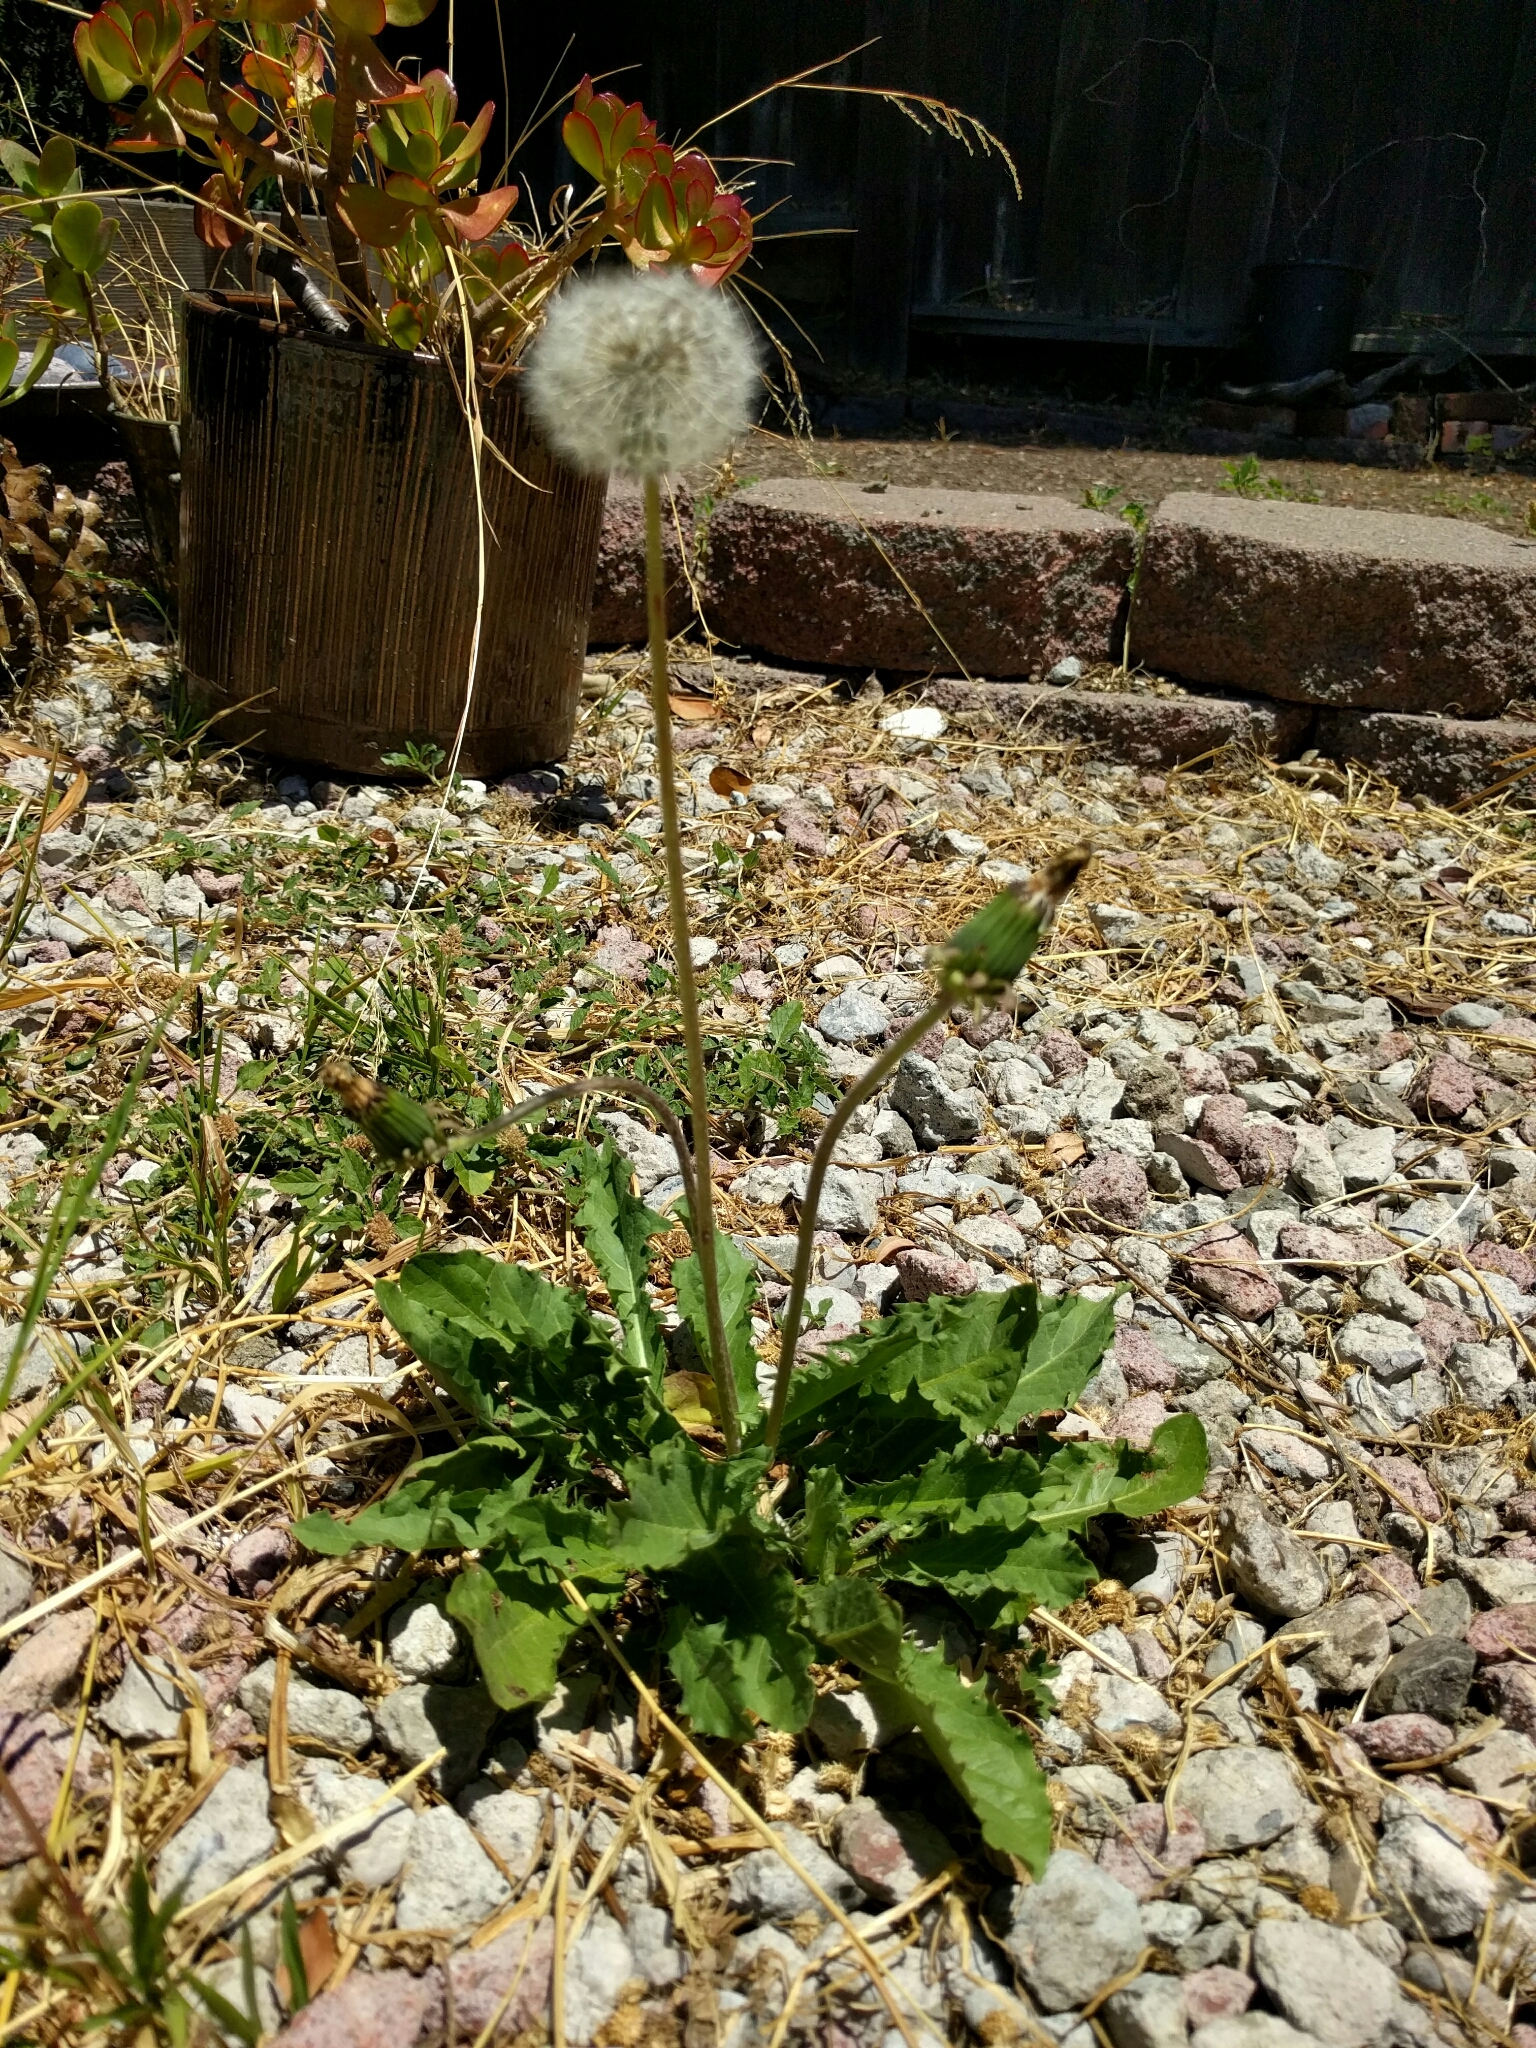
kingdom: Plantae
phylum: Tracheophyta
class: Magnoliopsida
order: Asterales
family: Asteraceae
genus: Taraxacum
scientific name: Taraxacum officinale
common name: Common dandelion
